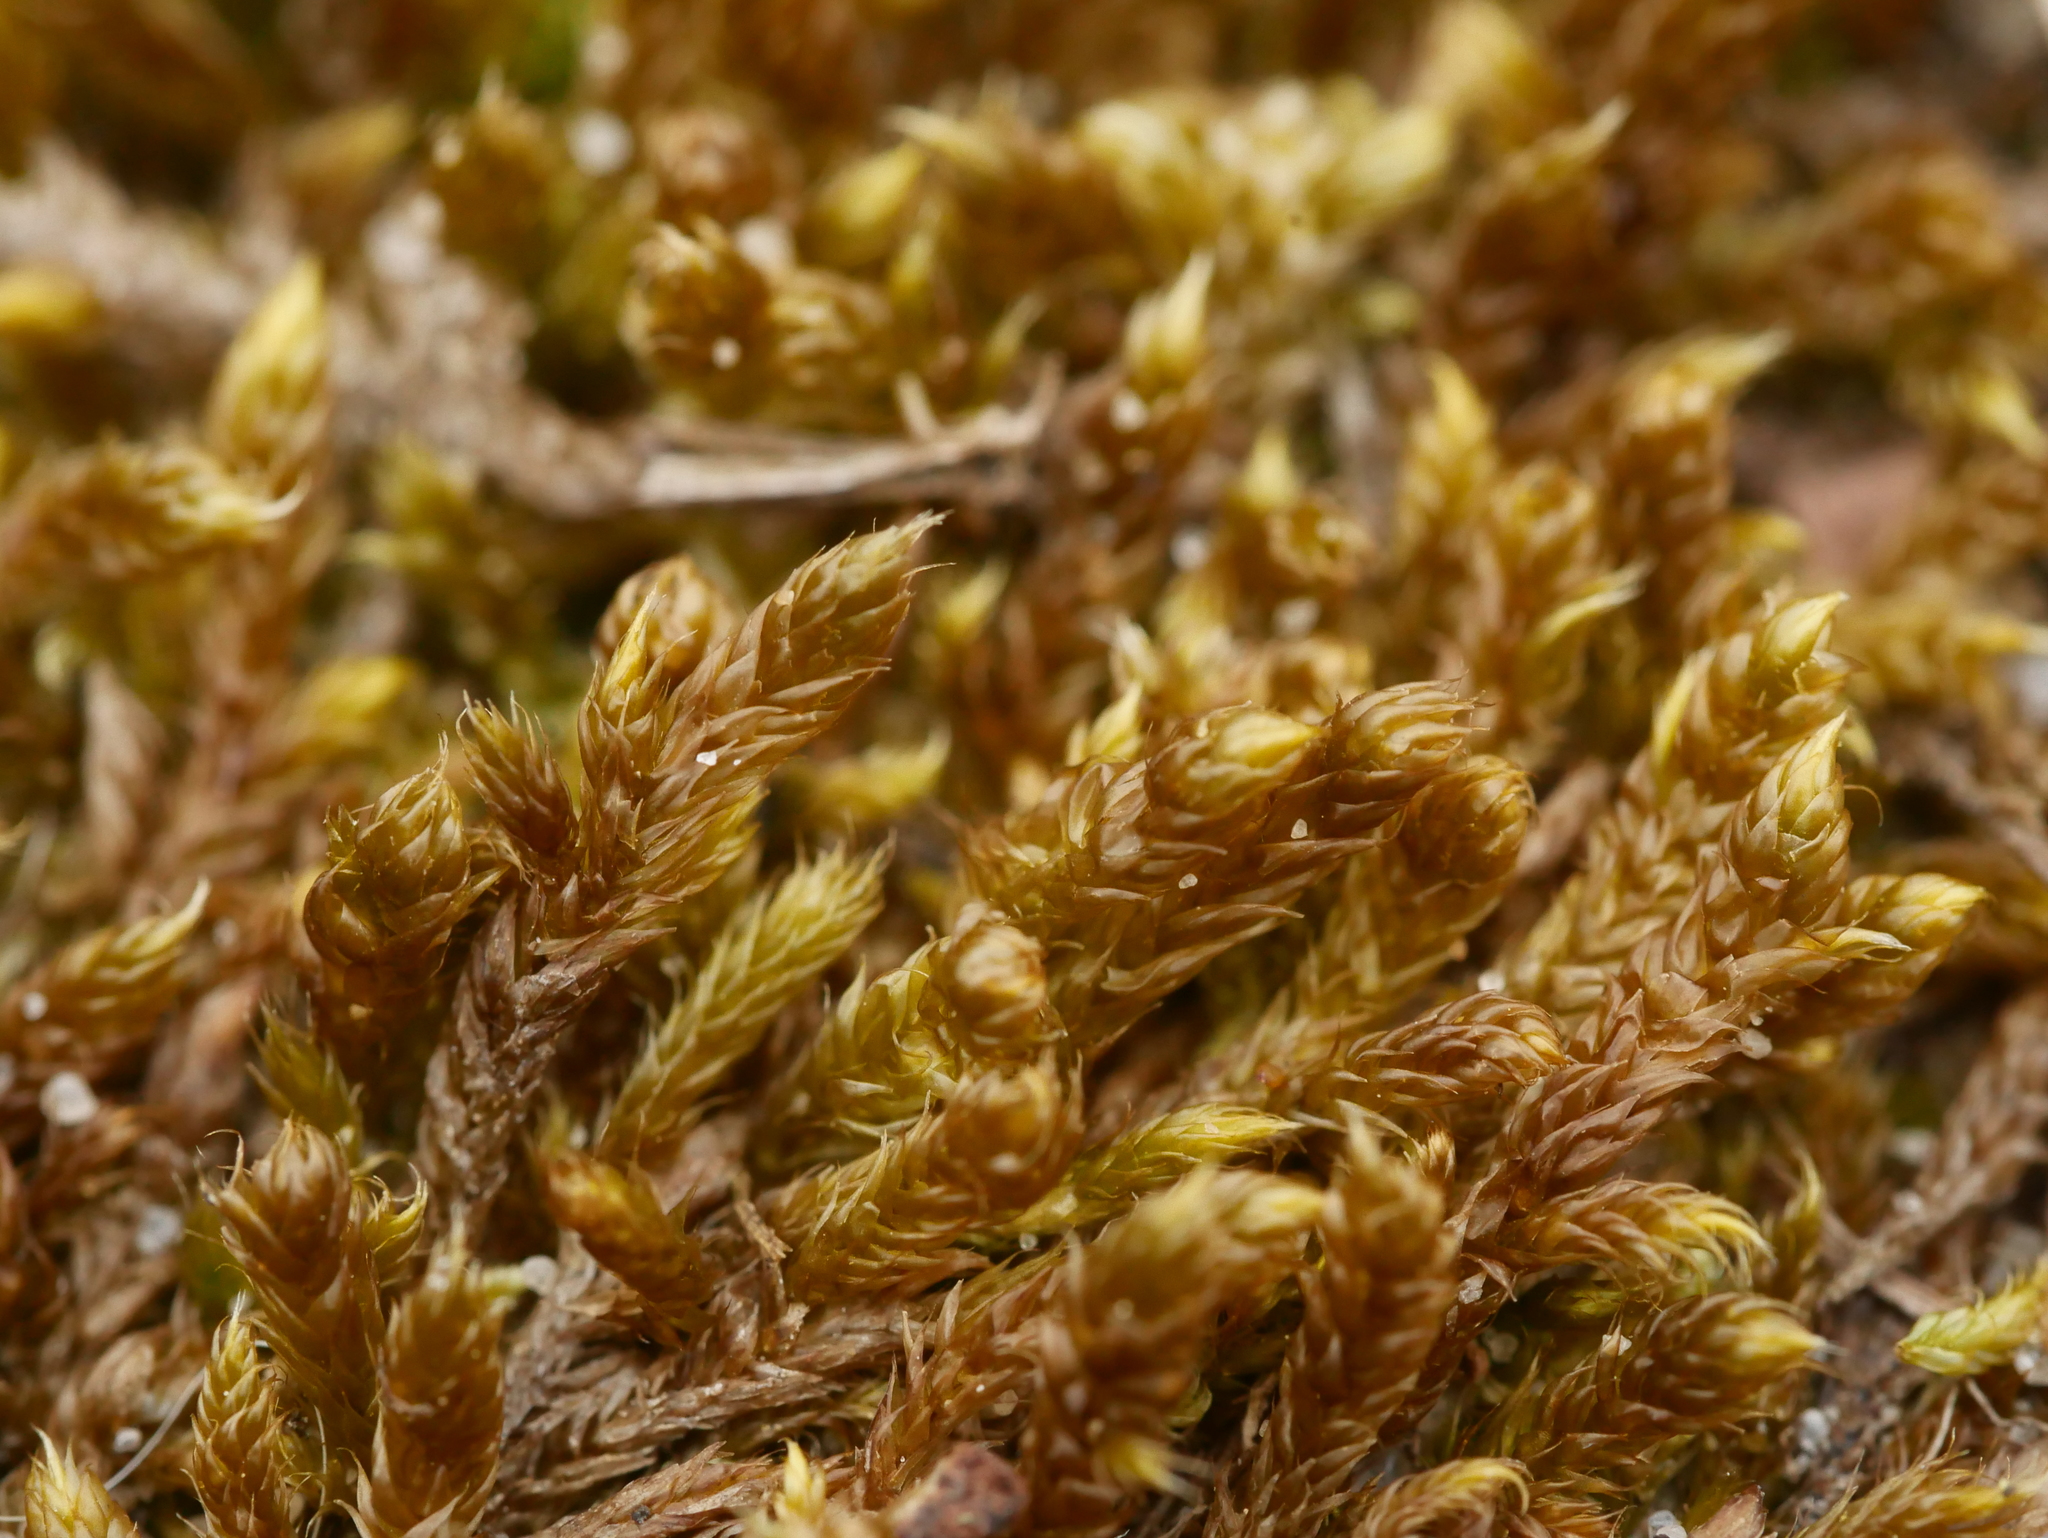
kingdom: Plantae
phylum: Bryophyta
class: Bryopsida
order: Hypnales
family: Hypnaceae
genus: Hypnum
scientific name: Hypnum cupressiforme
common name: Cypress-leaved plait-moss
